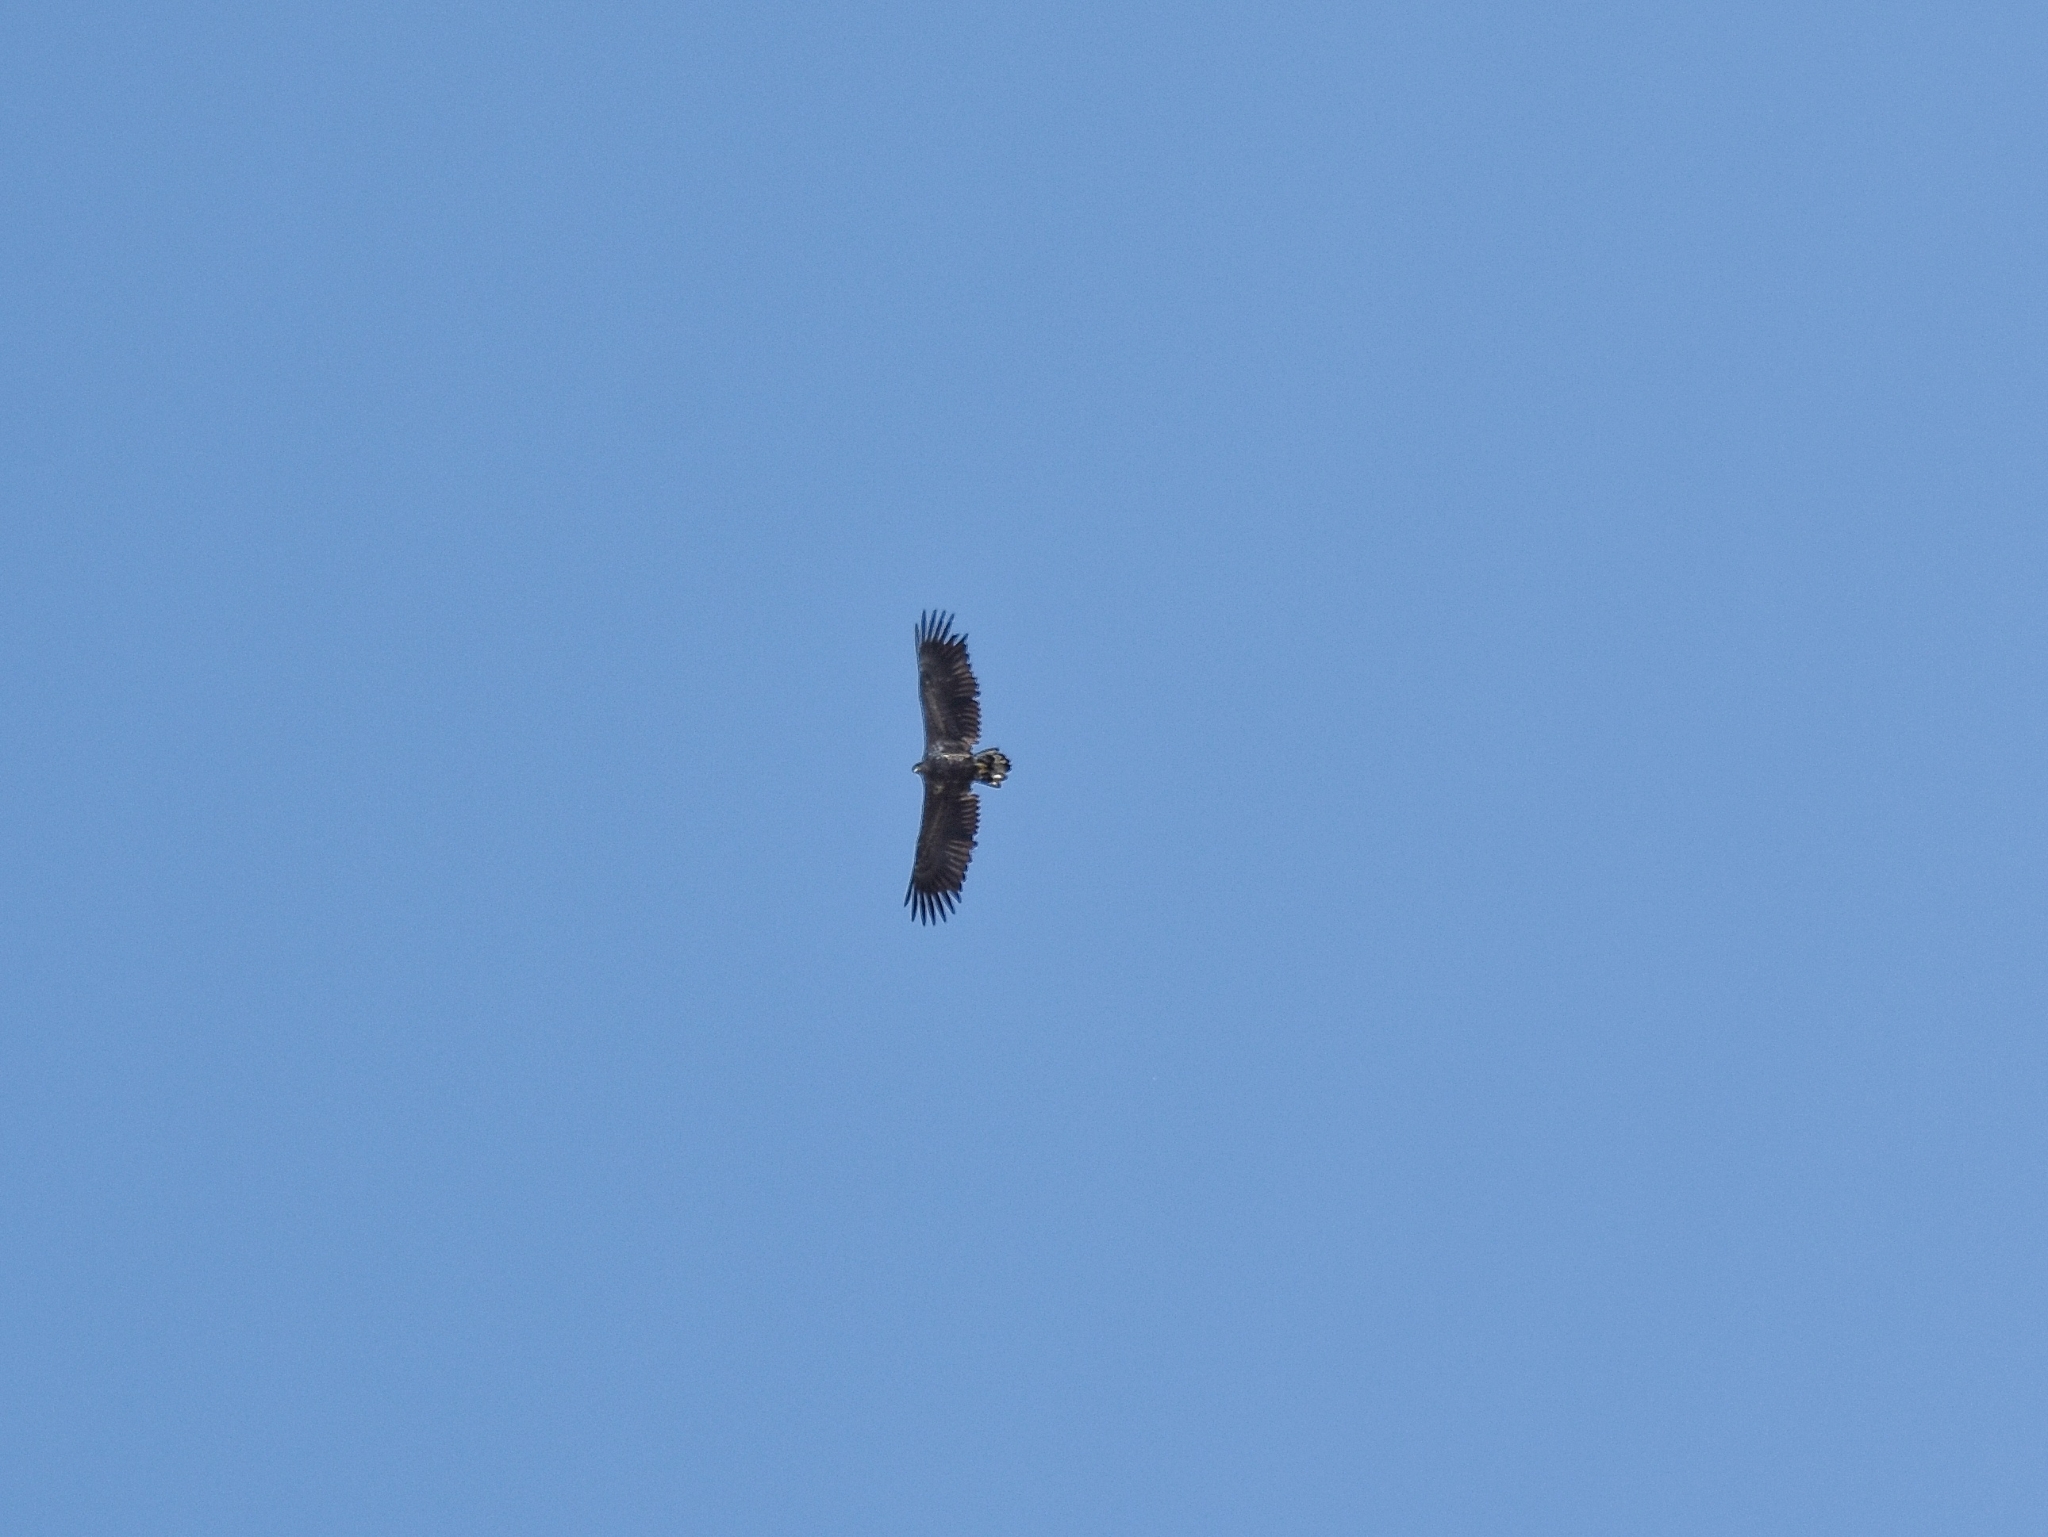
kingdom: Animalia
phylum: Chordata
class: Aves
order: Accipitriformes
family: Accipitridae
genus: Haliaeetus
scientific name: Haliaeetus albicilla
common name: White-tailed eagle
